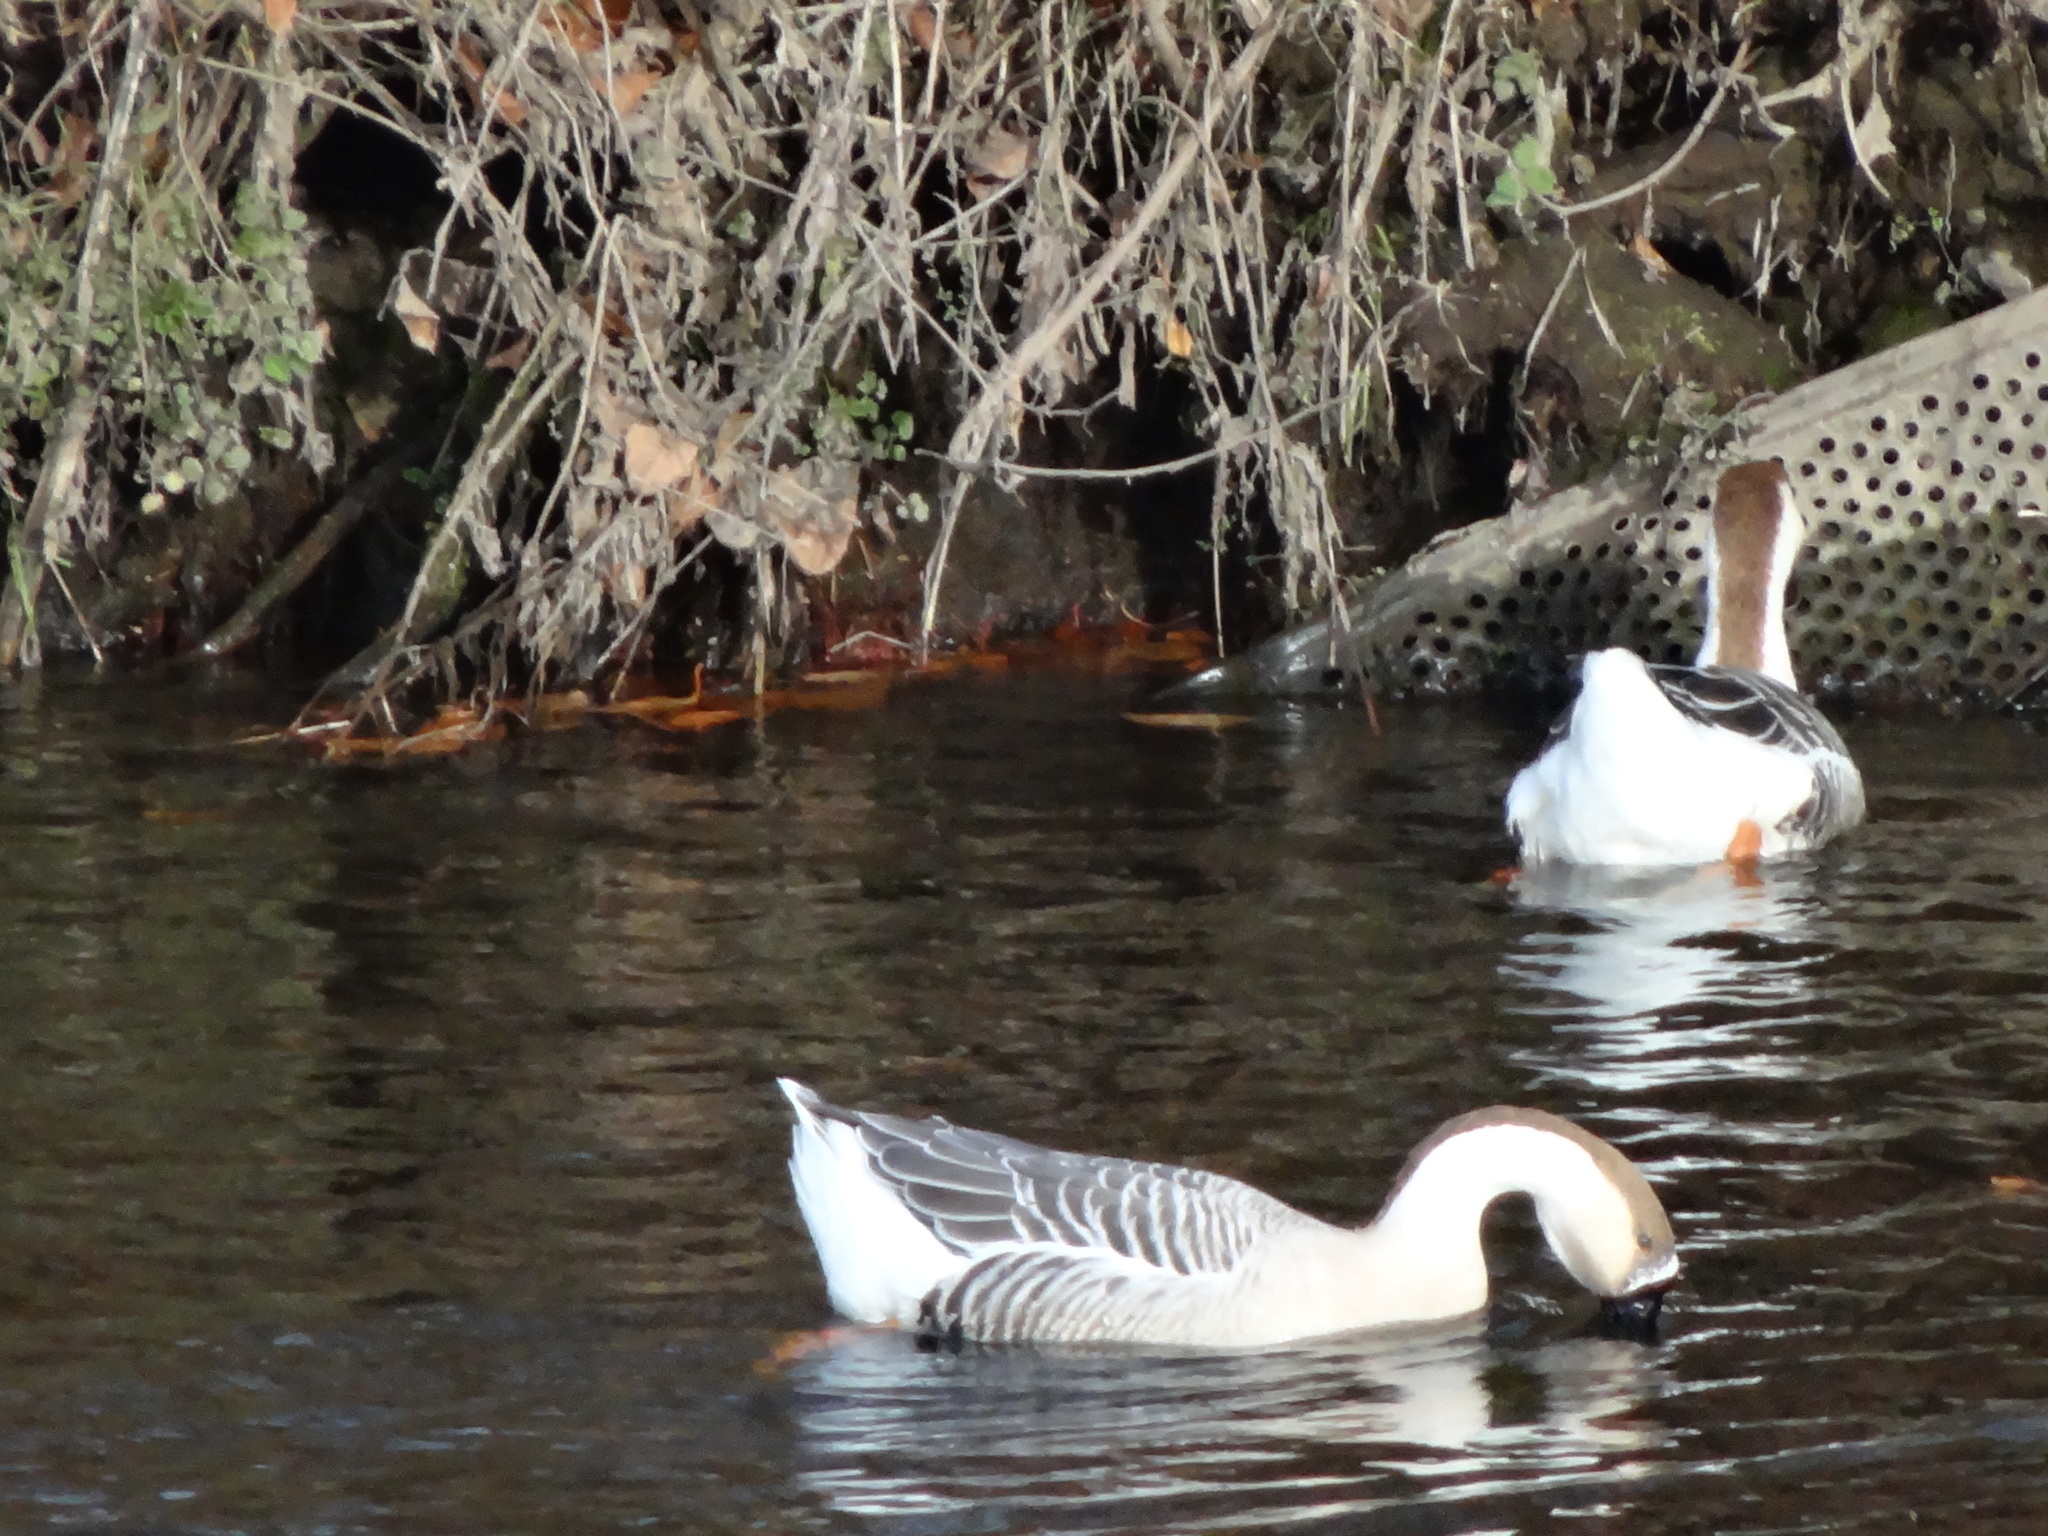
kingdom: Animalia
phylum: Chordata
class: Aves
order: Anseriformes
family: Anatidae
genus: Anser
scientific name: Anser cygnoides
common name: Swan goose
